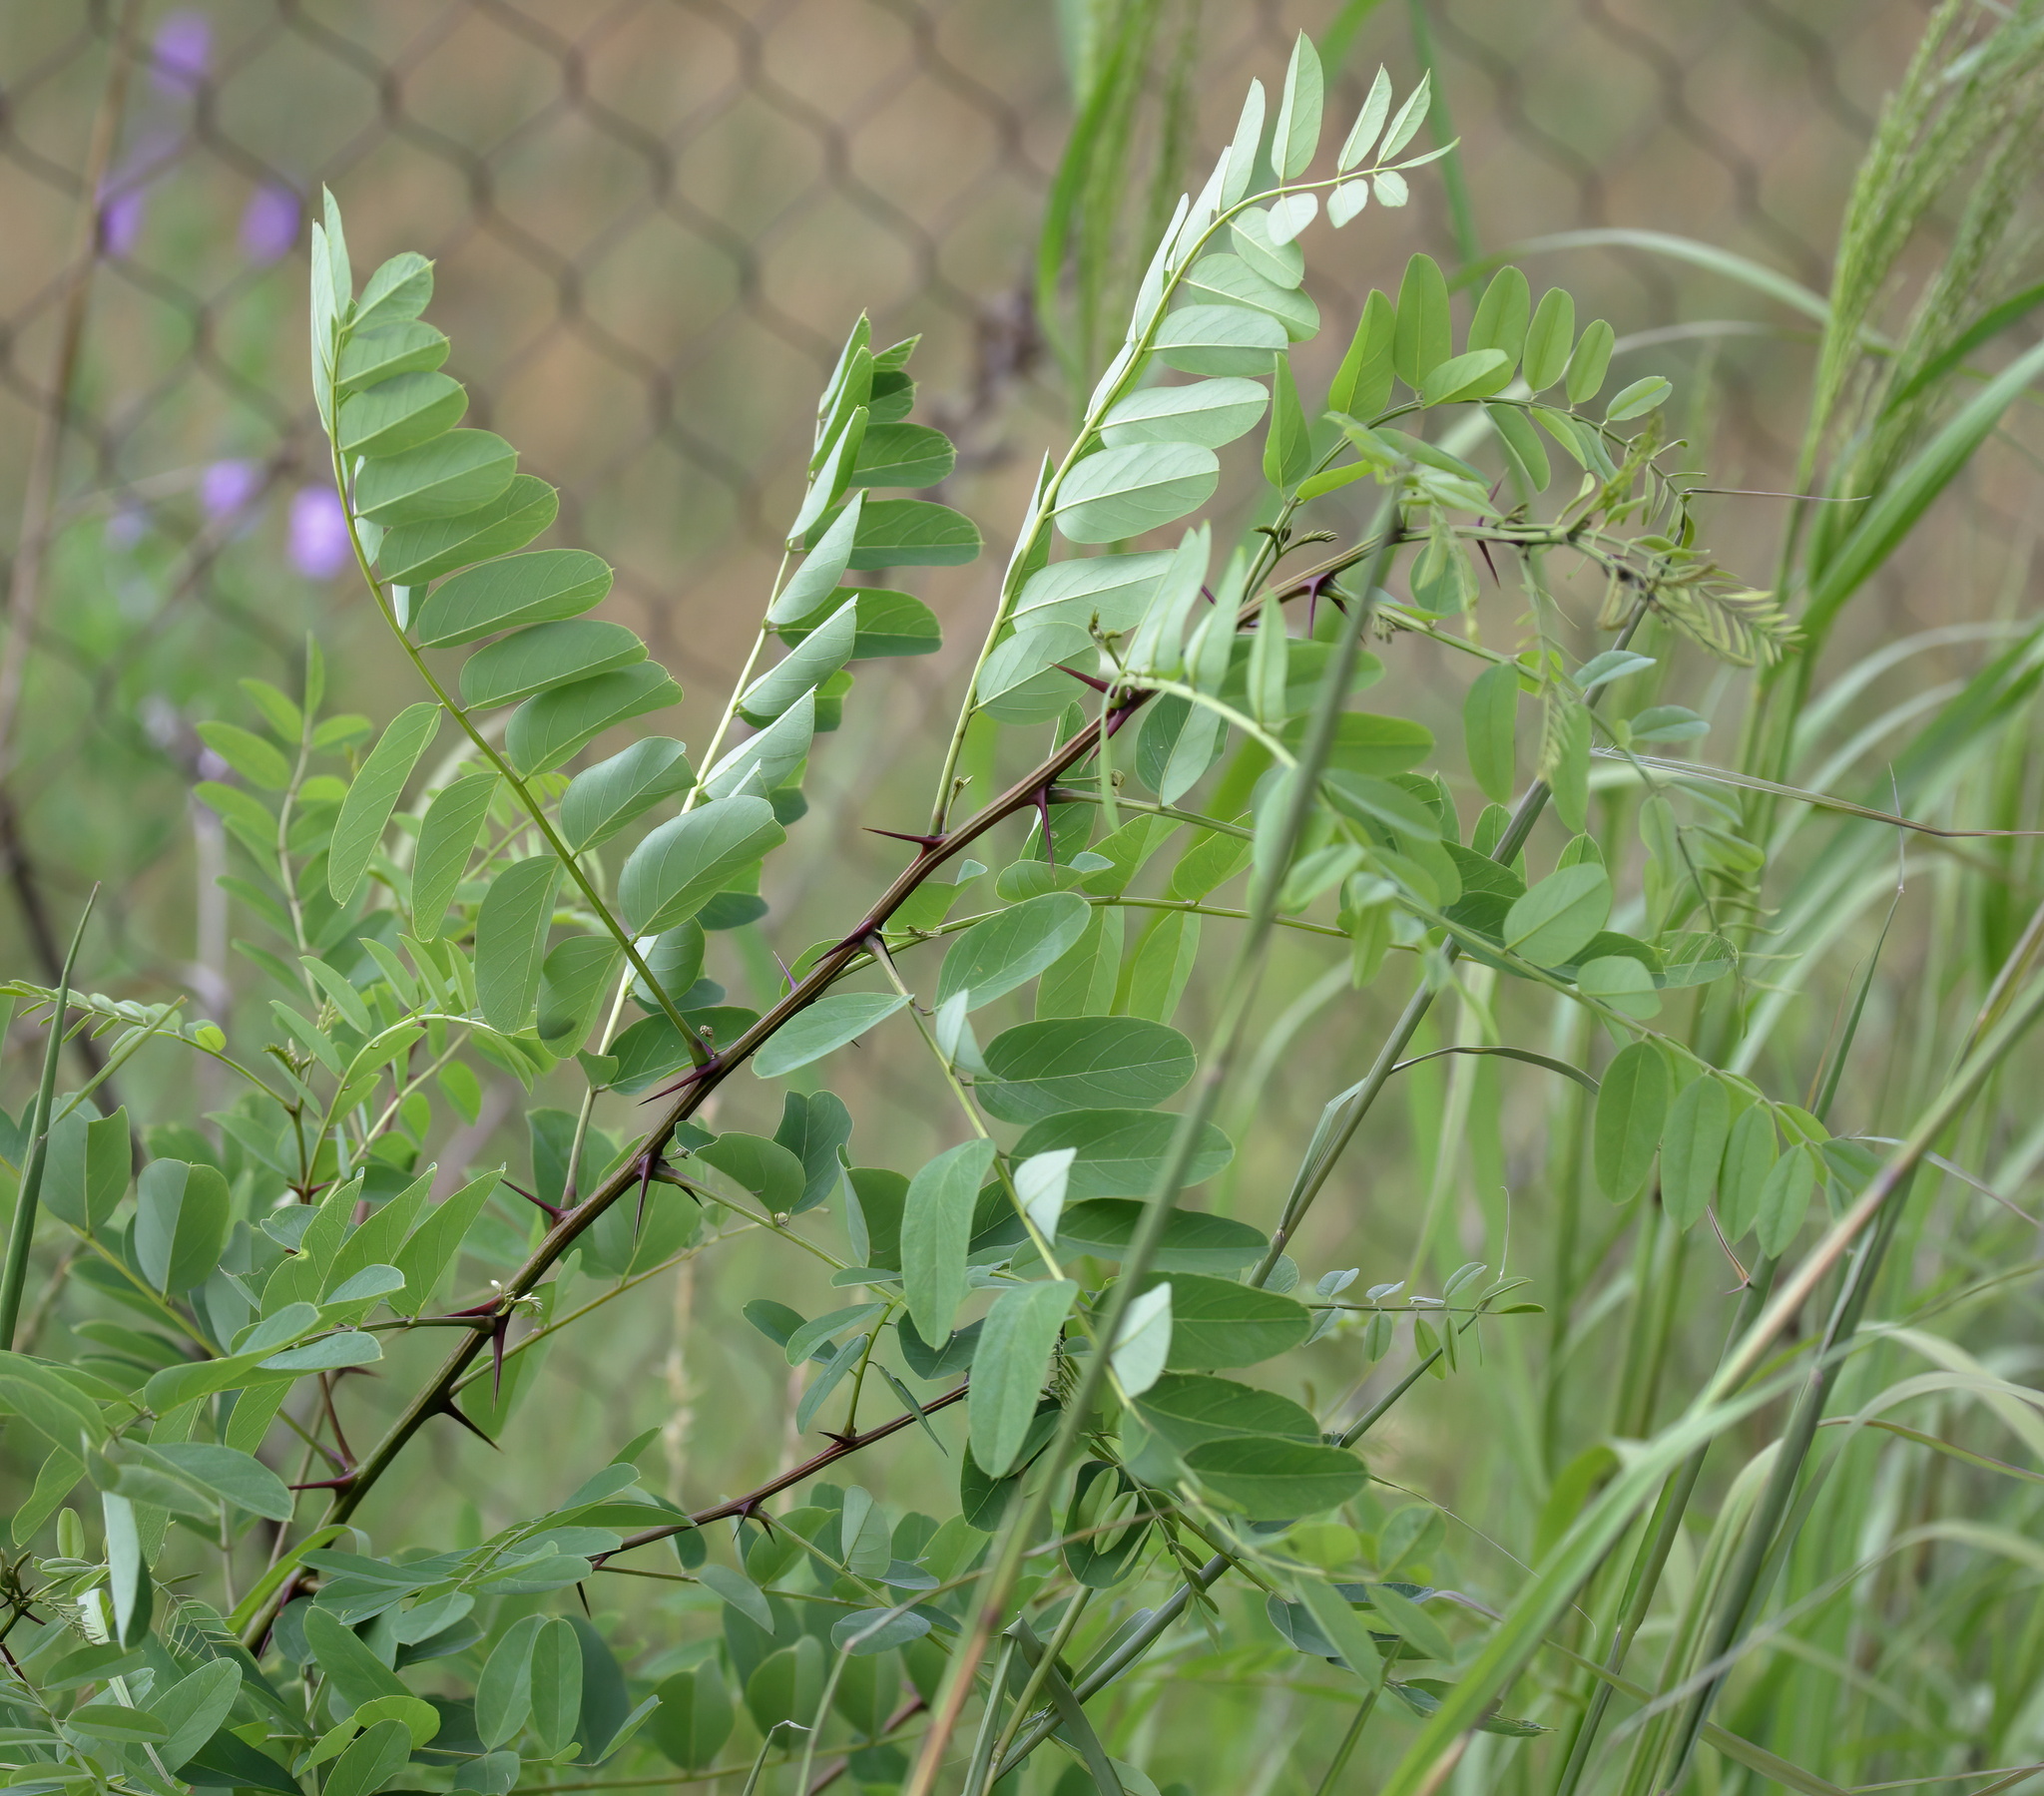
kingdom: Plantae
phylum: Tracheophyta
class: Magnoliopsida
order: Fabales
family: Fabaceae
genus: Robinia
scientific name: Robinia pseudoacacia
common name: Black locust
